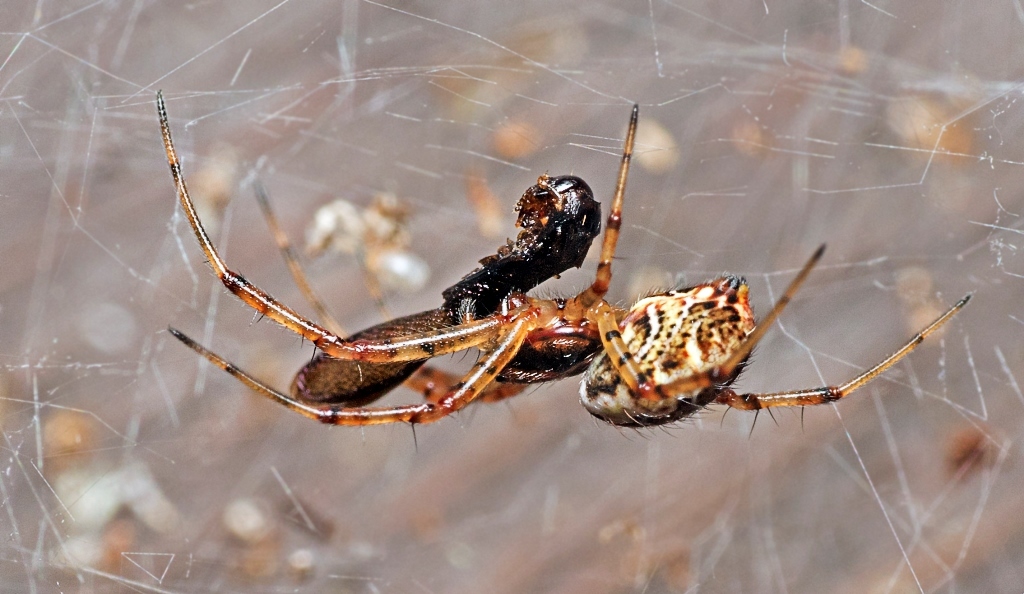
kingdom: Animalia
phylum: Arthropoda
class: Arachnida
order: Araneae
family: Araneidae
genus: Nephilengys
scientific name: Nephilengys malabarensis
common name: Asian hermit spider
